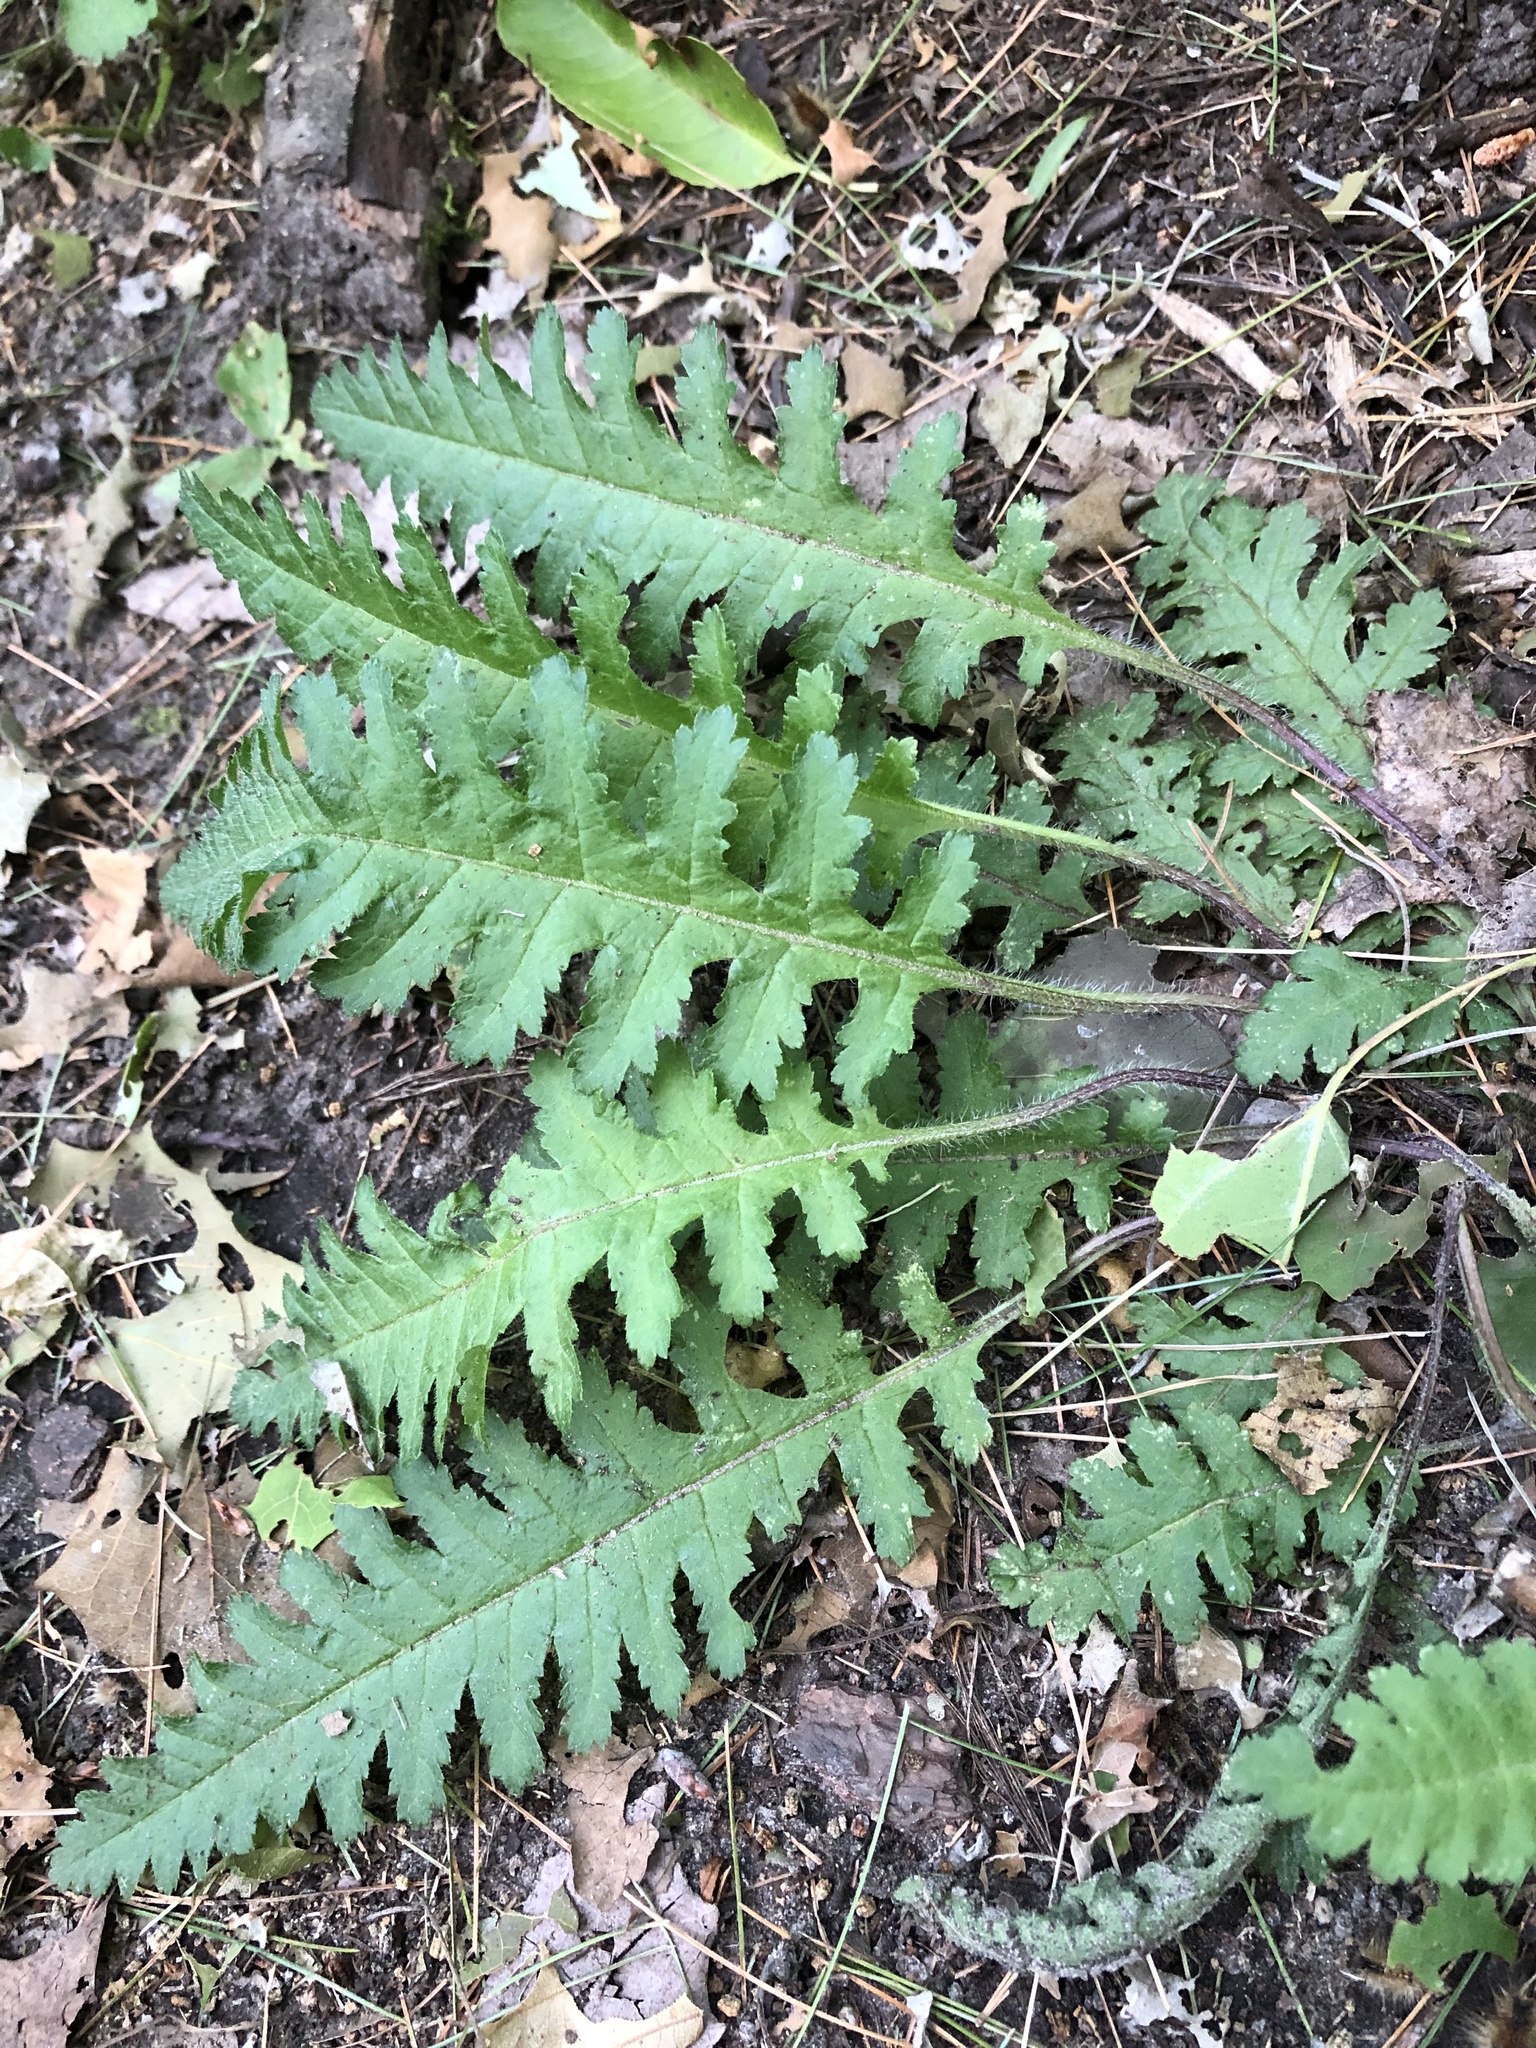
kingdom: Plantae
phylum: Tracheophyta
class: Magnoliopsida
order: Lamiales
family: Orobanchaceae
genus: Pedicularis
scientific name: Pedicularis canadensis
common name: Early lousewort
